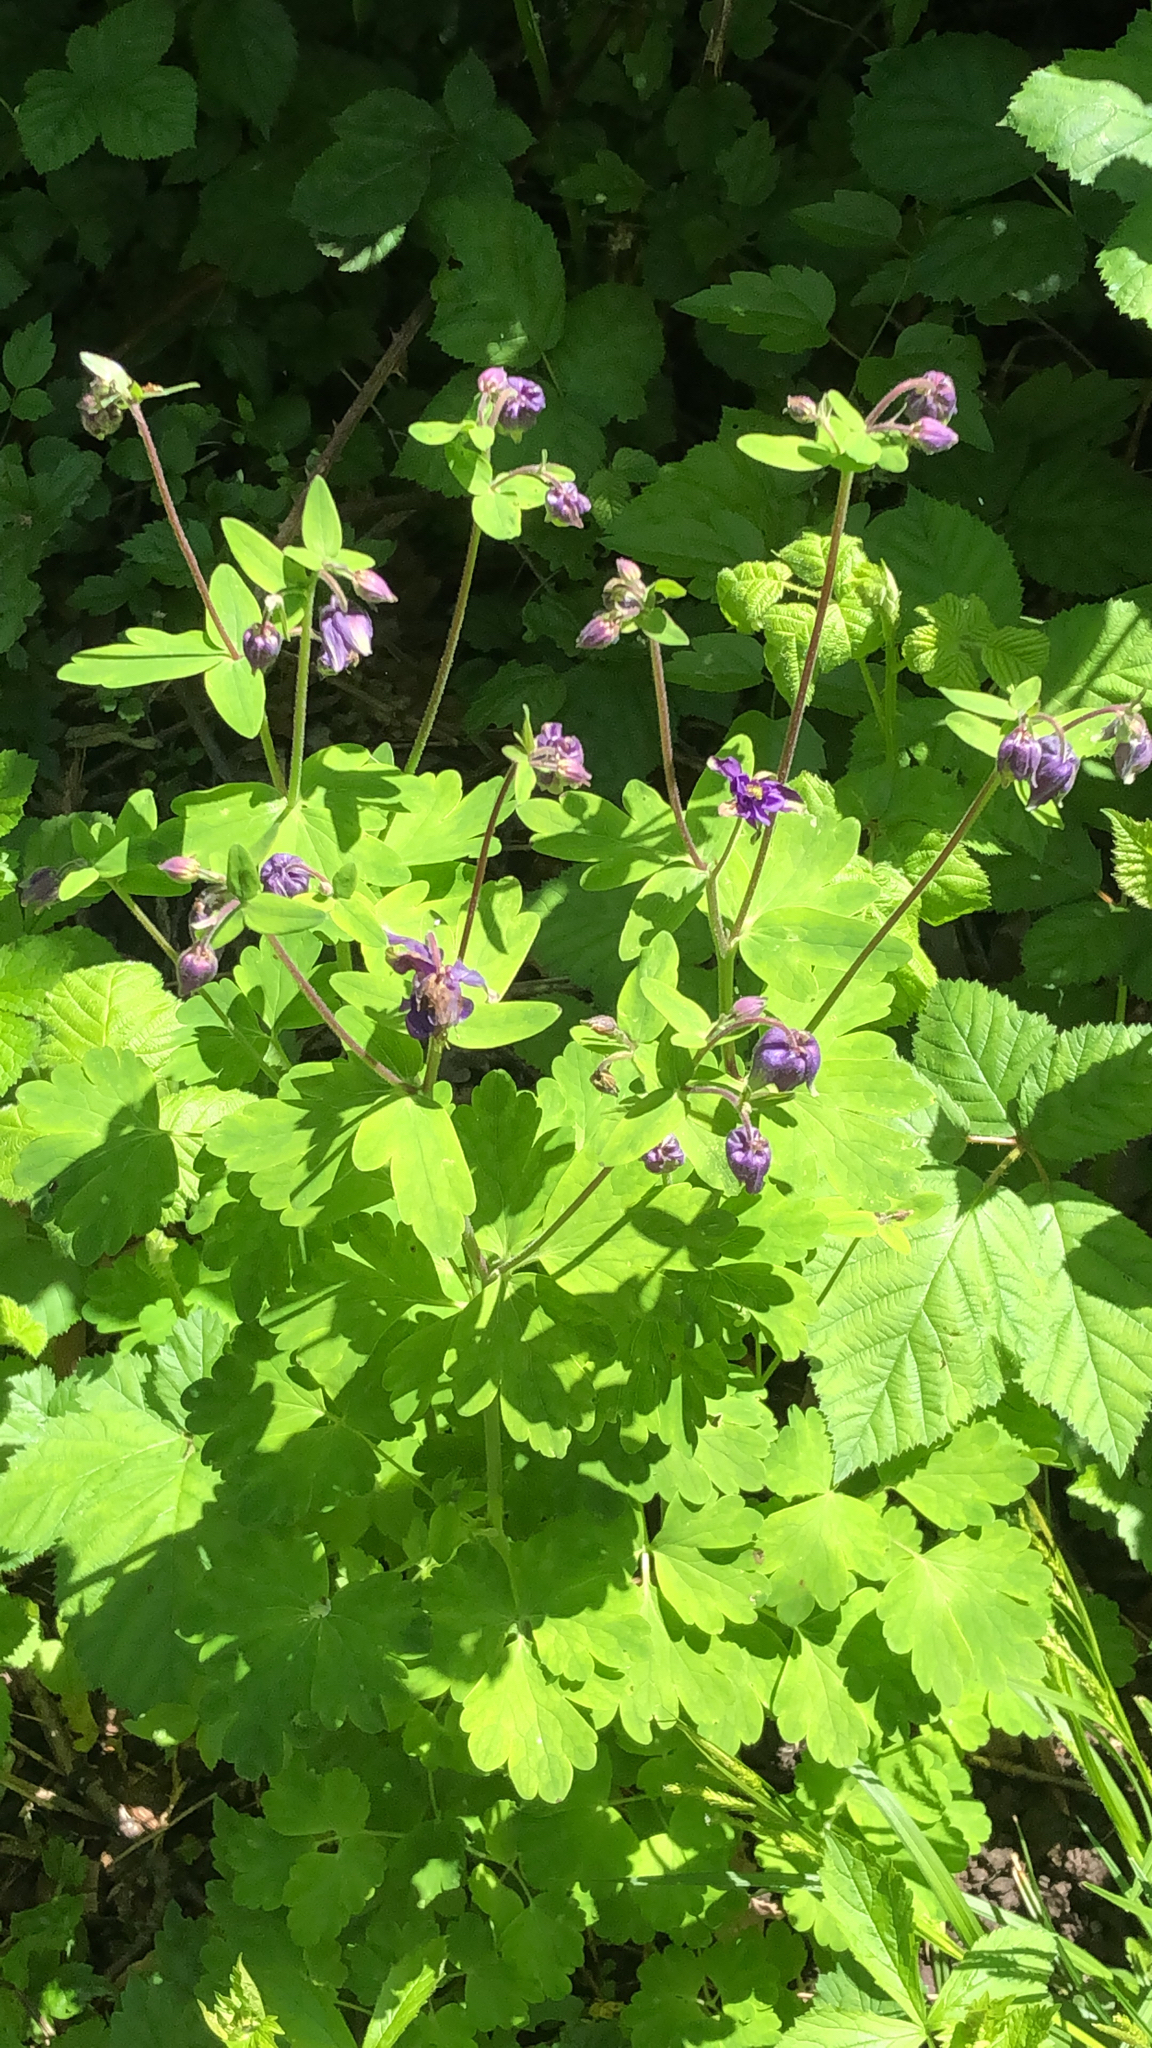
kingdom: Plantae
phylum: Tracheophyta
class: Magnoliopsida
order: Ranunculales
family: Ranunculaceae
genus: Aquilegia
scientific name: Aquilegia vulgaris
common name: Columbine
